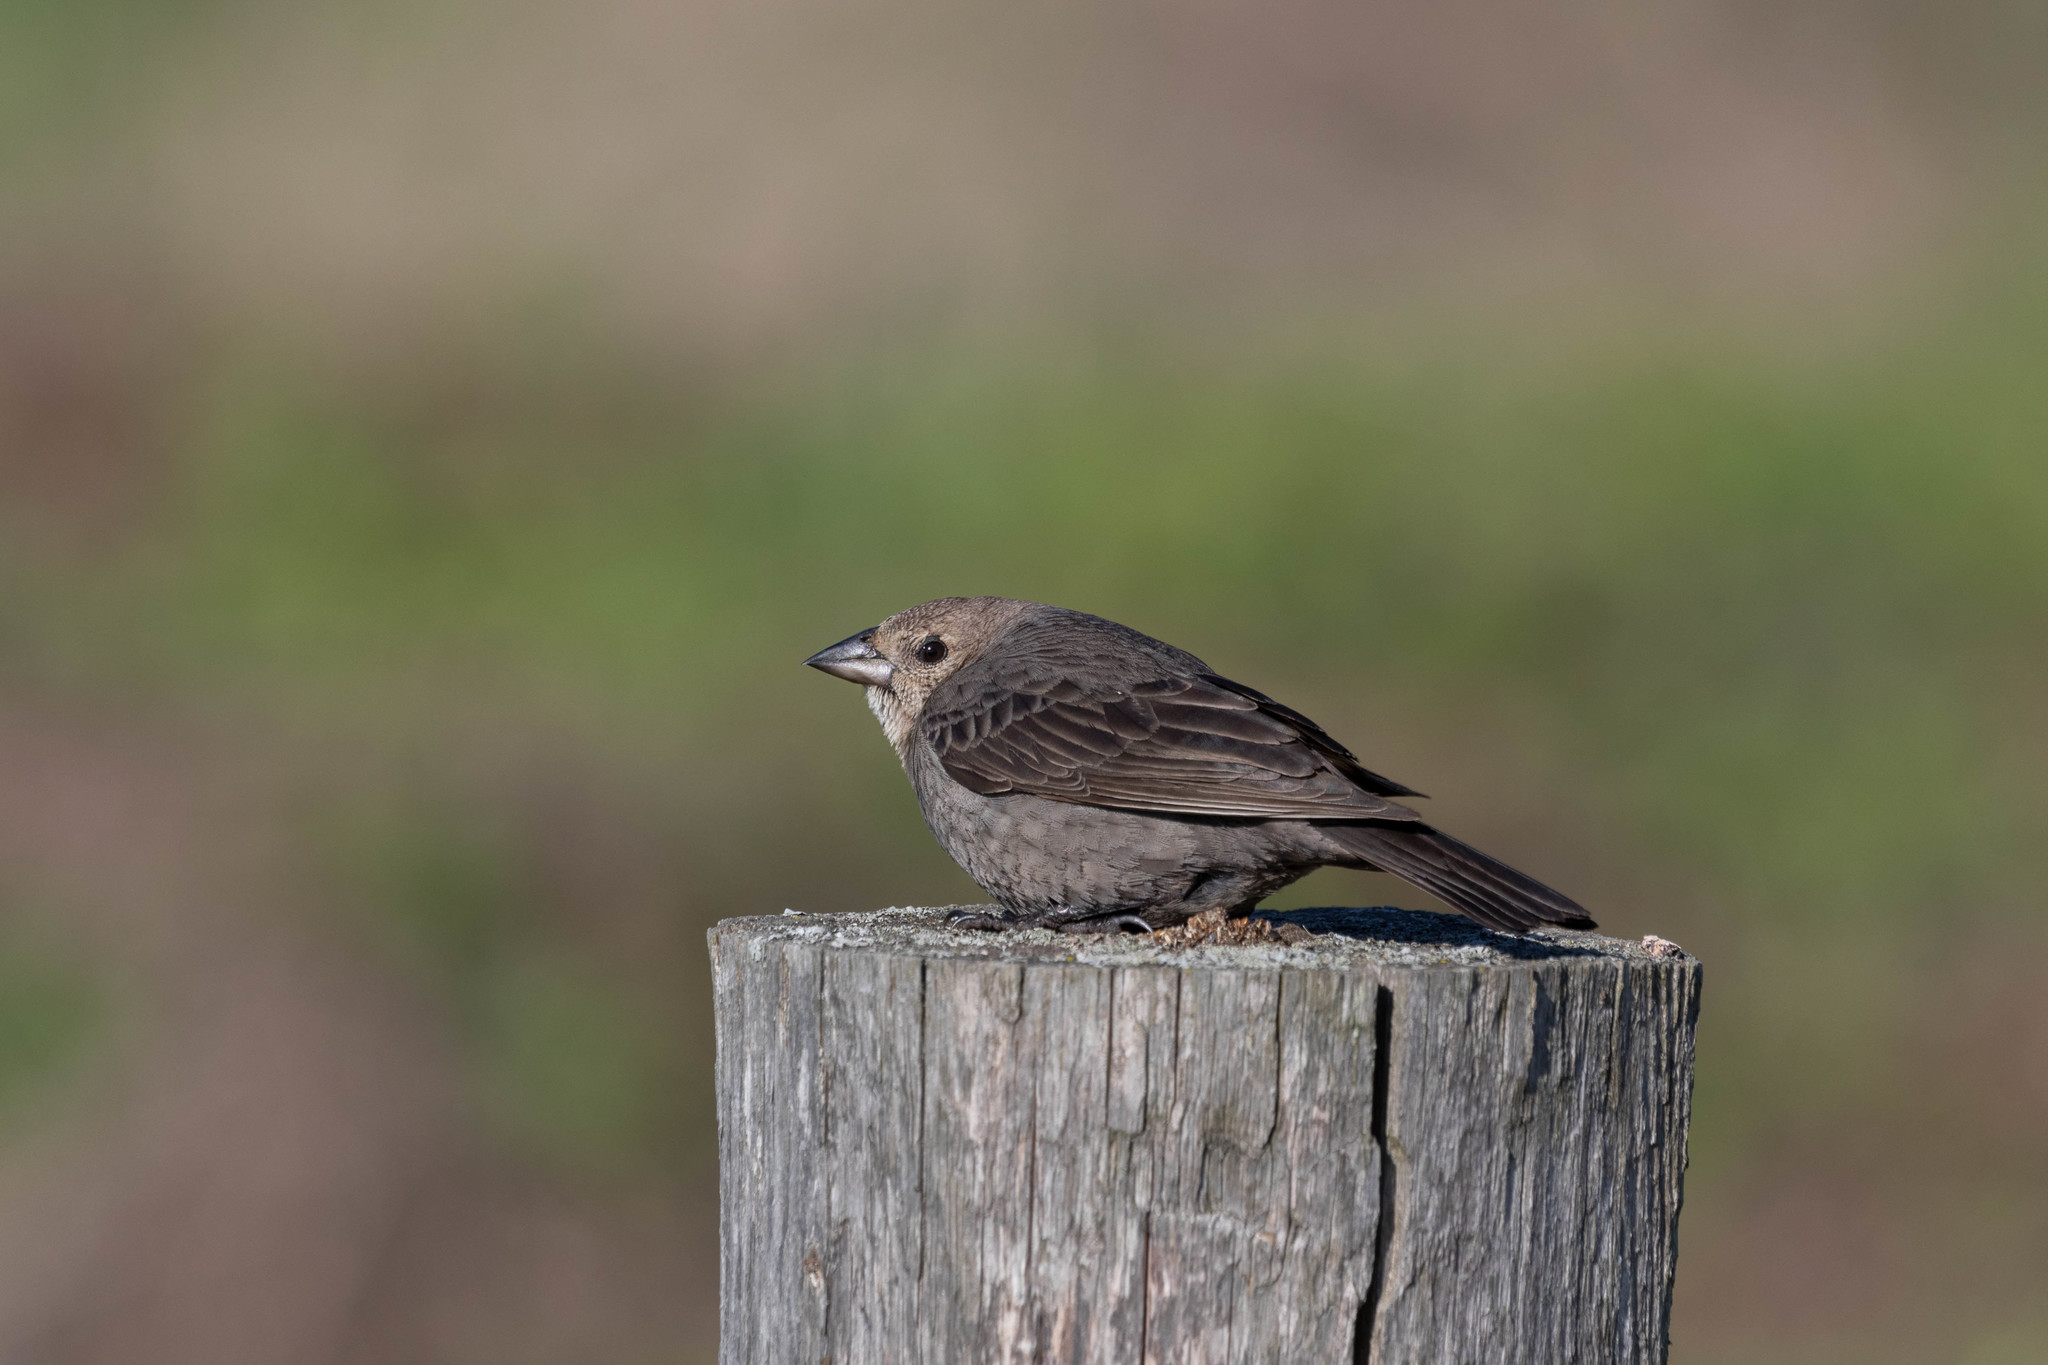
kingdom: Animalia
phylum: Chordata
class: Aves
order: Passeriformes
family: Icteridae
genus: Molothrus
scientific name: Molothrus ater
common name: Brown-headed cowbird
